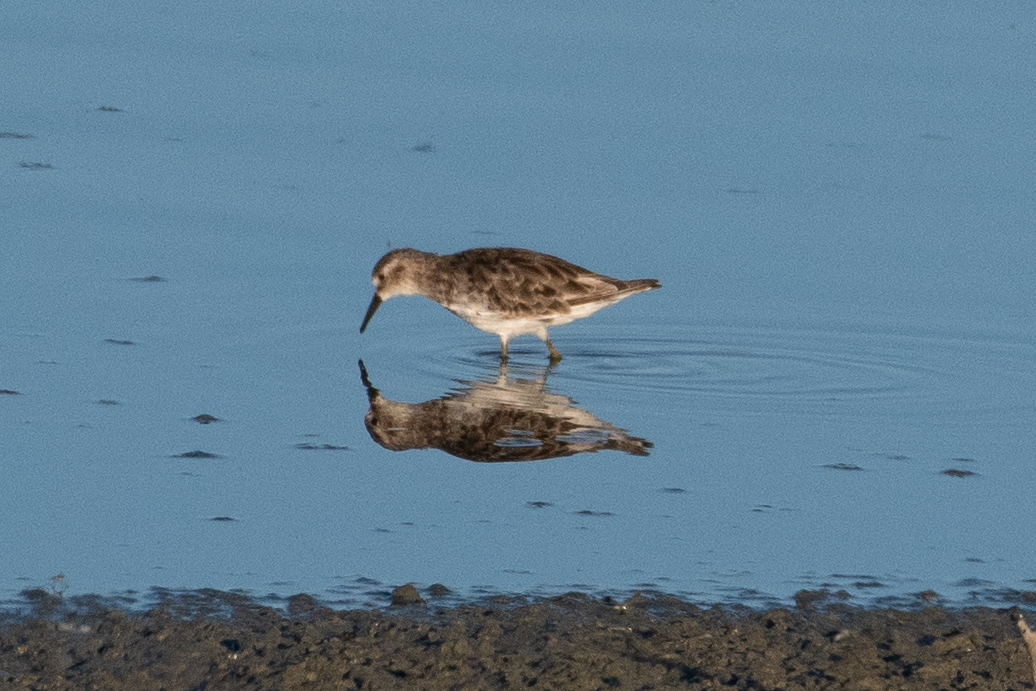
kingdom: Animalia
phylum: Chordata
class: Aves
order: Charadriiformes
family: Scolopacidae
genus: Calidris
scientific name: Calidris minutilla
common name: Least sandpiper
